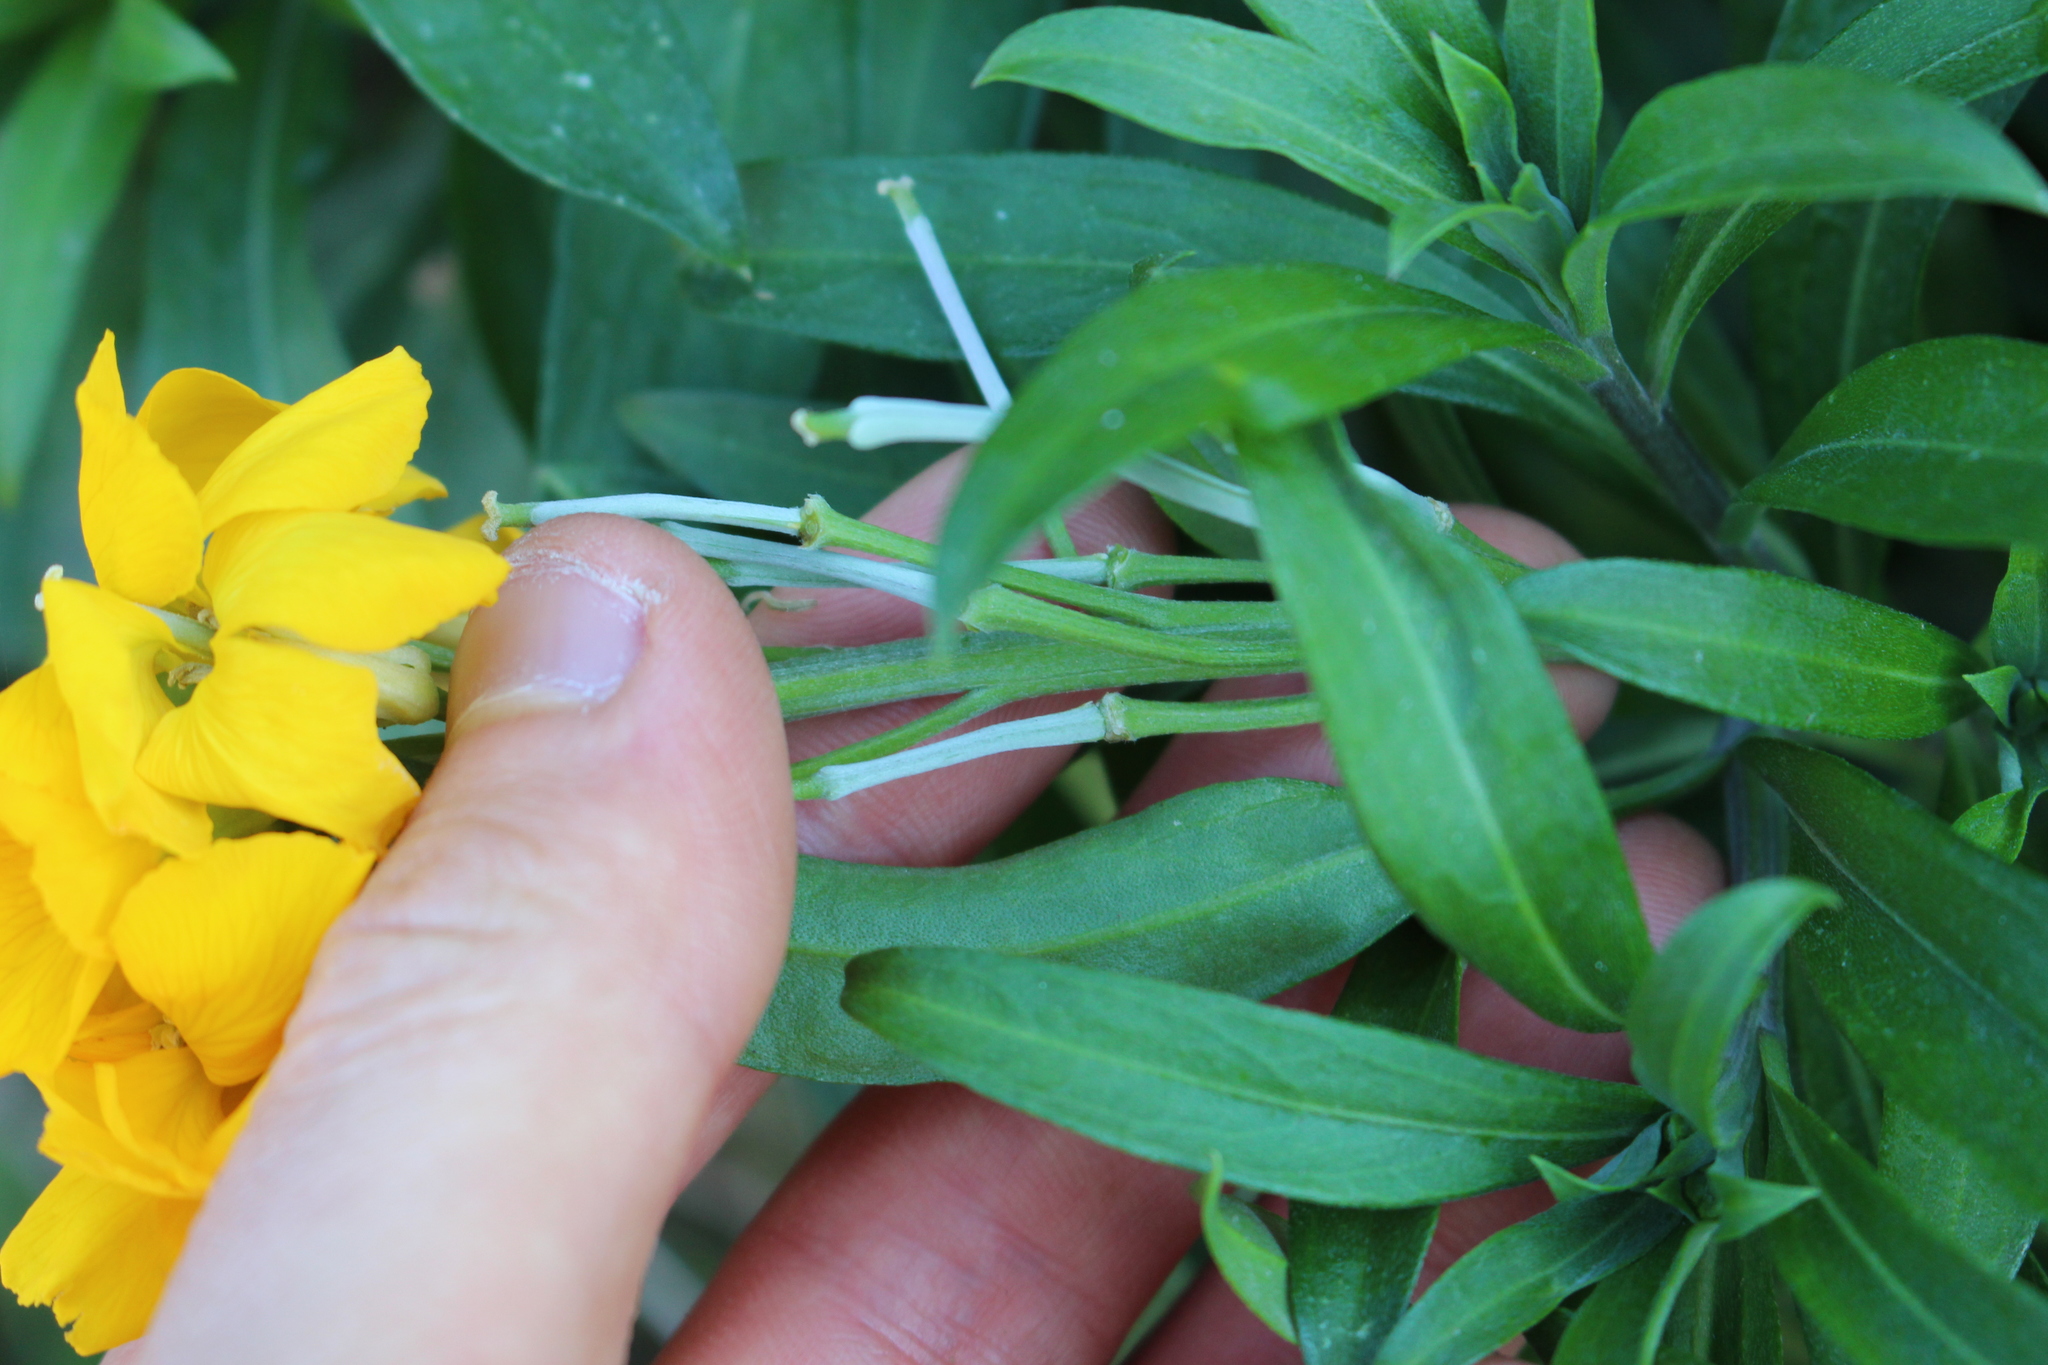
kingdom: Plantae
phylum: Tracheophyta
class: Magnoliopsida
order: Brassicales
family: Brassicaceae
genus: Erysimum
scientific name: Erysimum cheiri
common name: Wallflower
